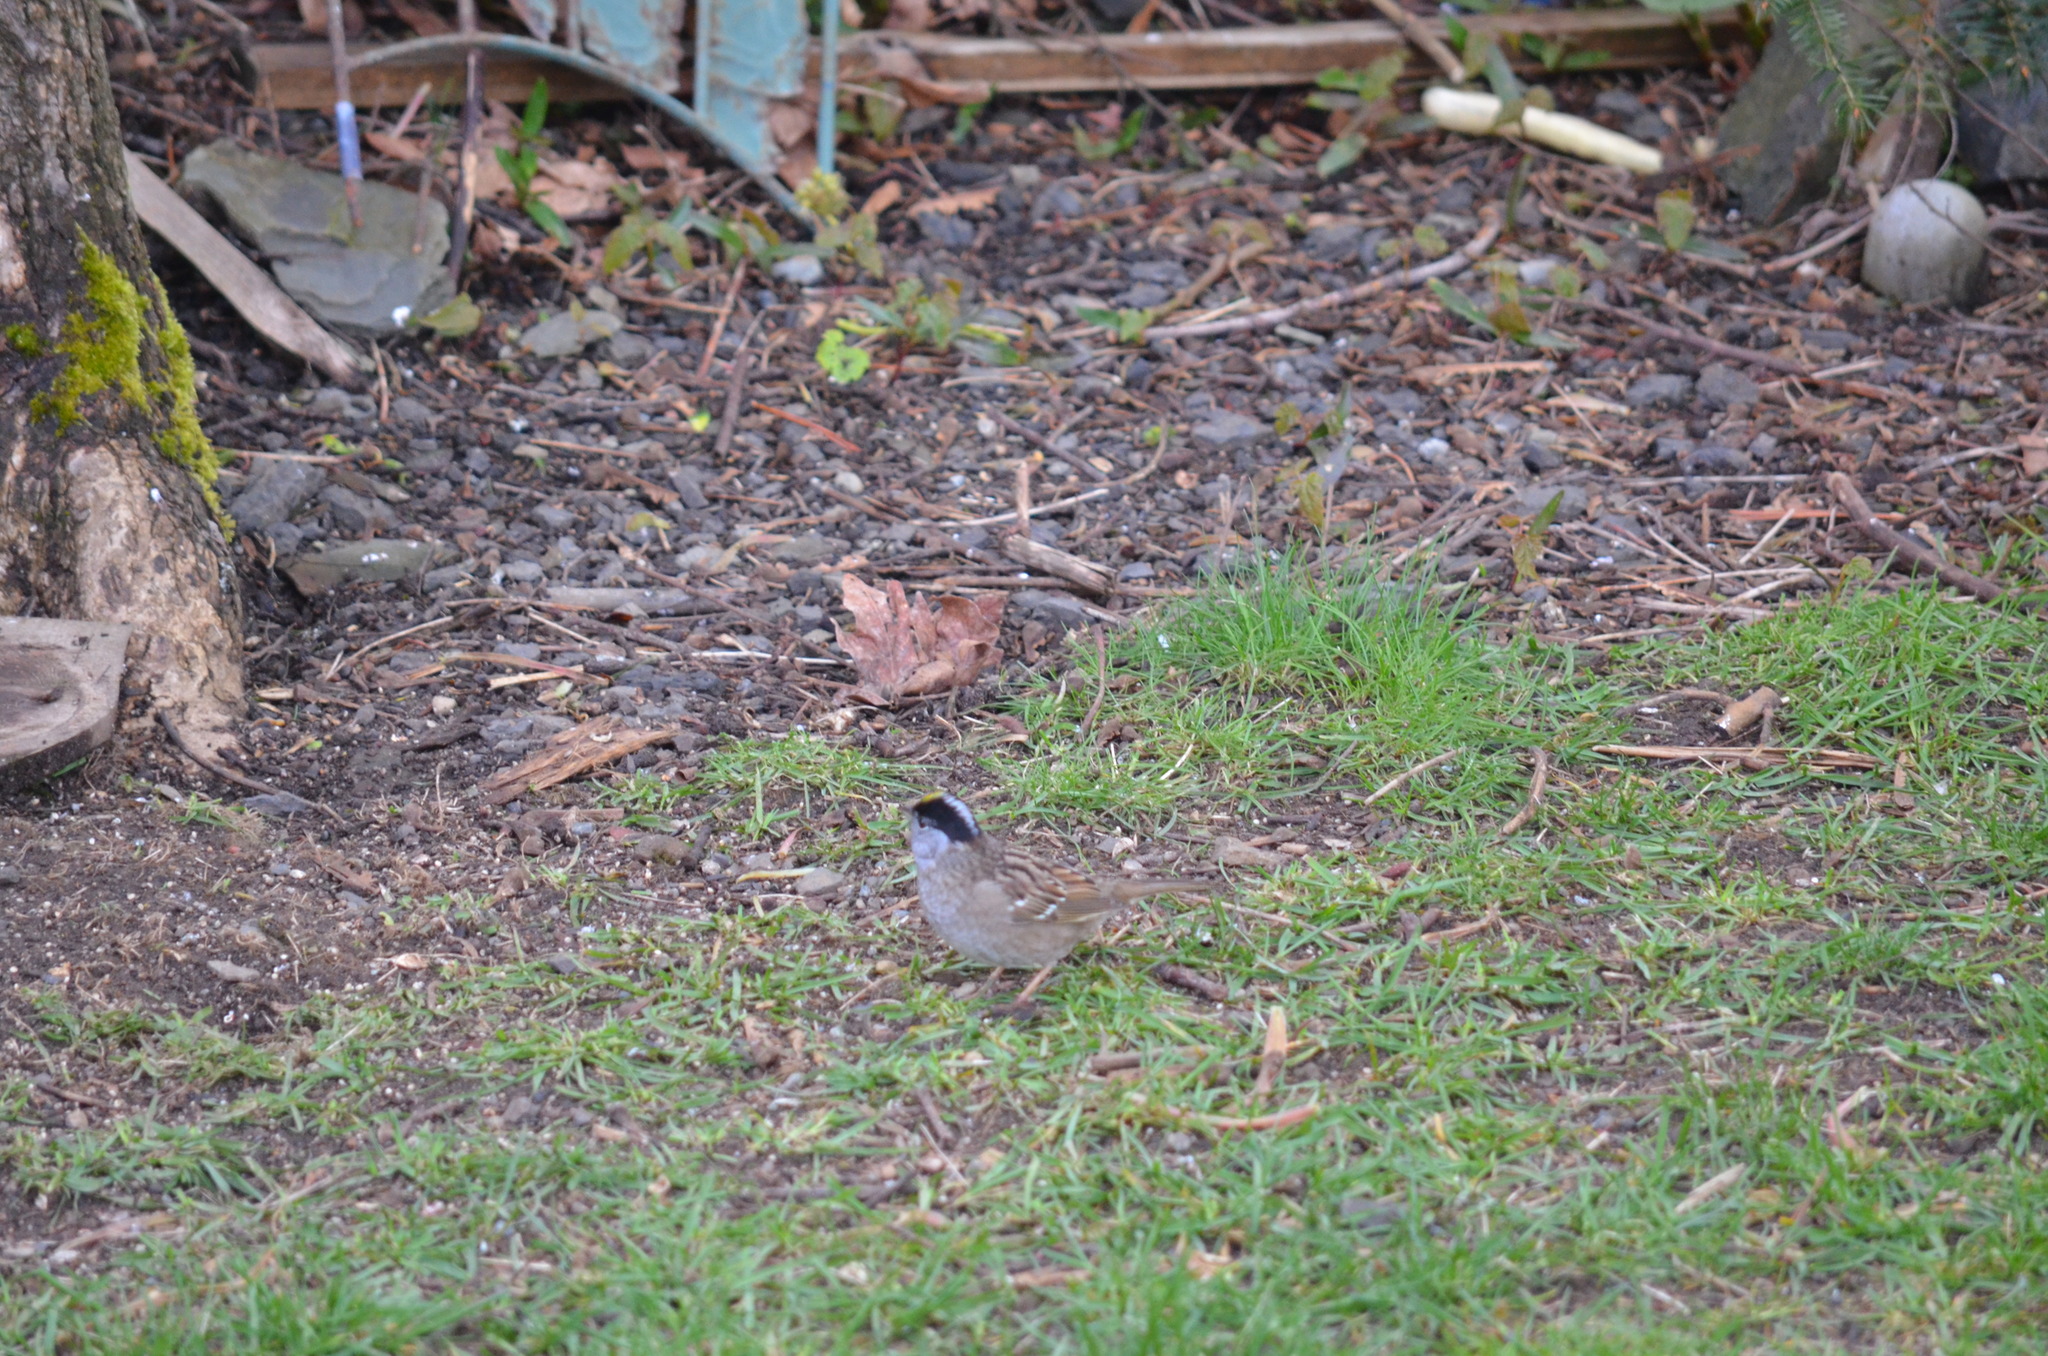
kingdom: Animalia
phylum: Chordata
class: Aves
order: Passeriformes
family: Passerellidae
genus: Zonotrichia
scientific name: Zonotrichia atricapilla
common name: Golden-crowned sparrow
